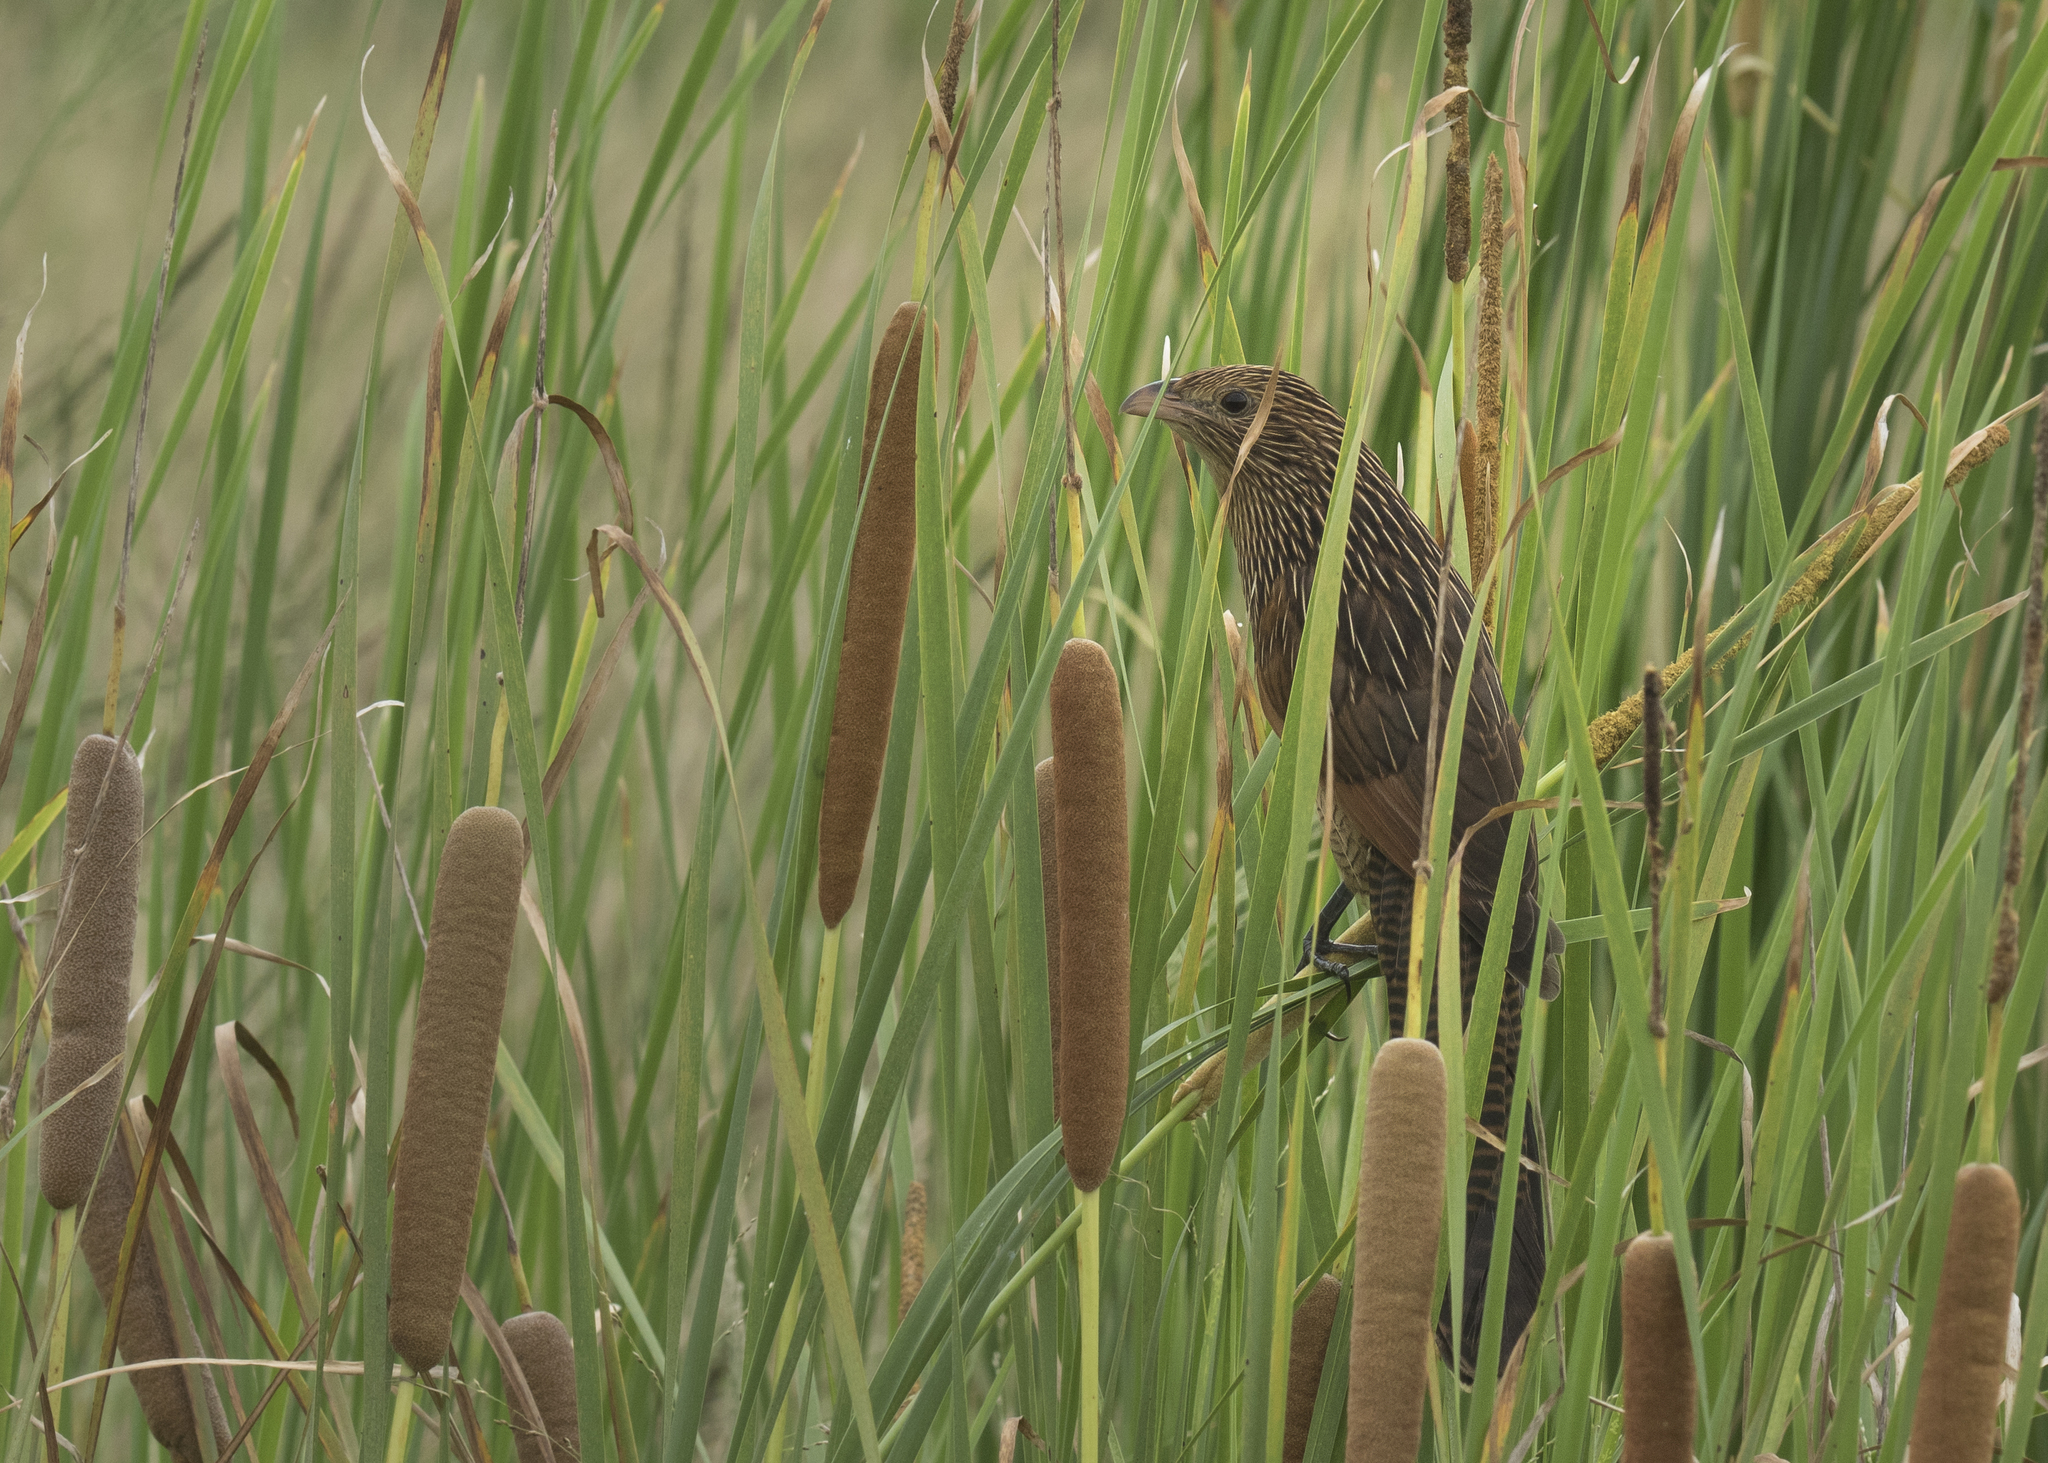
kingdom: Animalia
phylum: Chordata
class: Aves
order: Cuculiformes
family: Cuculidae
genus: Centropus
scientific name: Centropus bengalensis
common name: Lesser coucal
